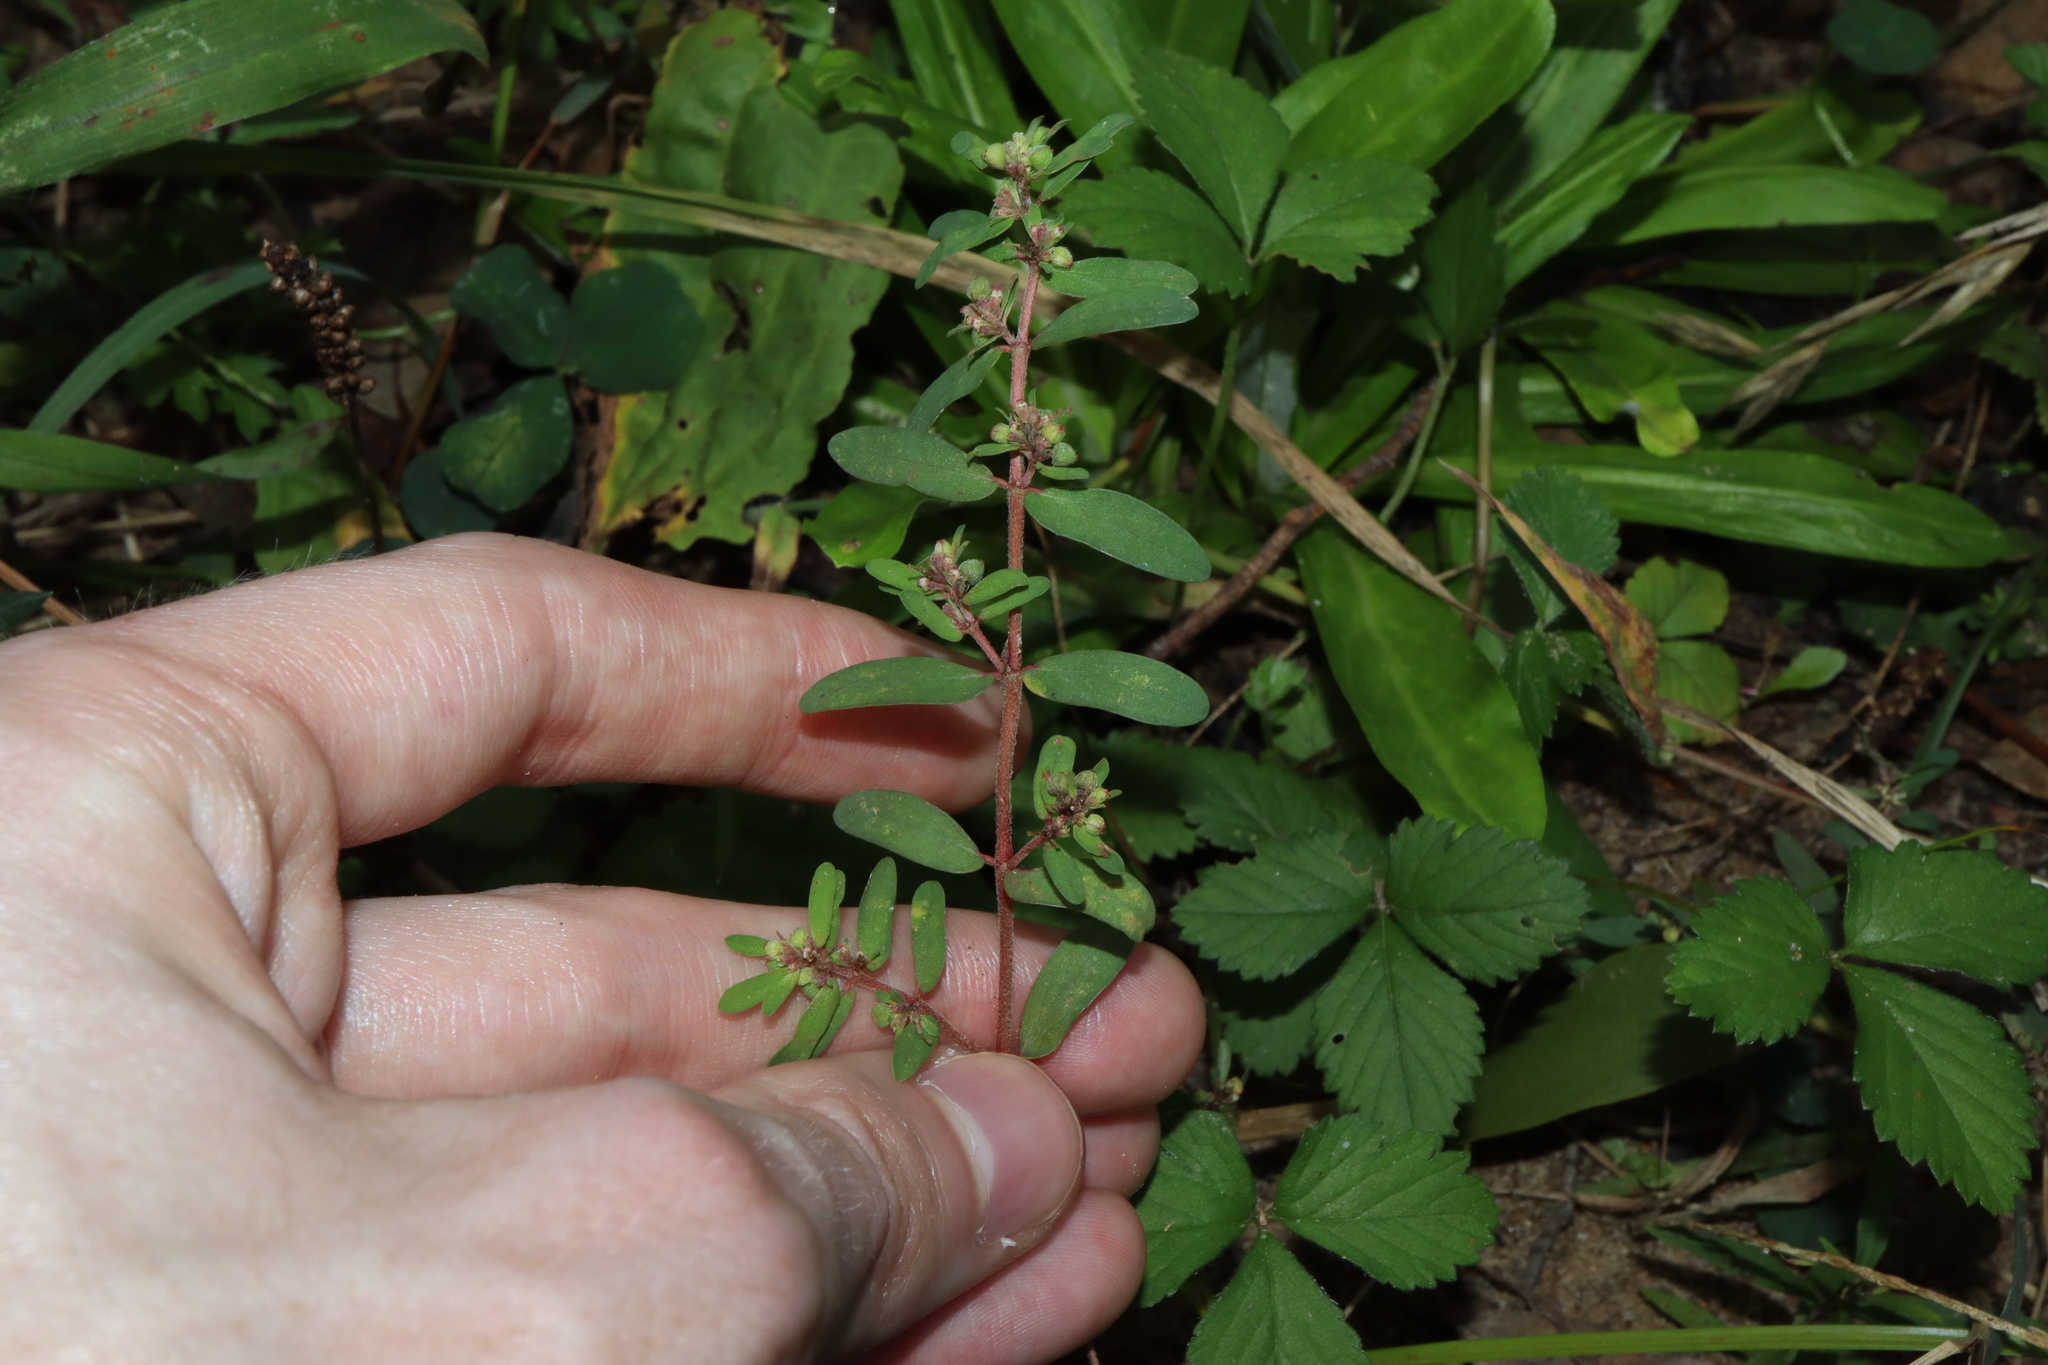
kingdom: Plantae
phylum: Tracheophyta
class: Magnoliopsida
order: Malpighiales
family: Euphorbiaceae
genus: Euphorbia
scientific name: Euphorbia maculata
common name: Spotted spurge
